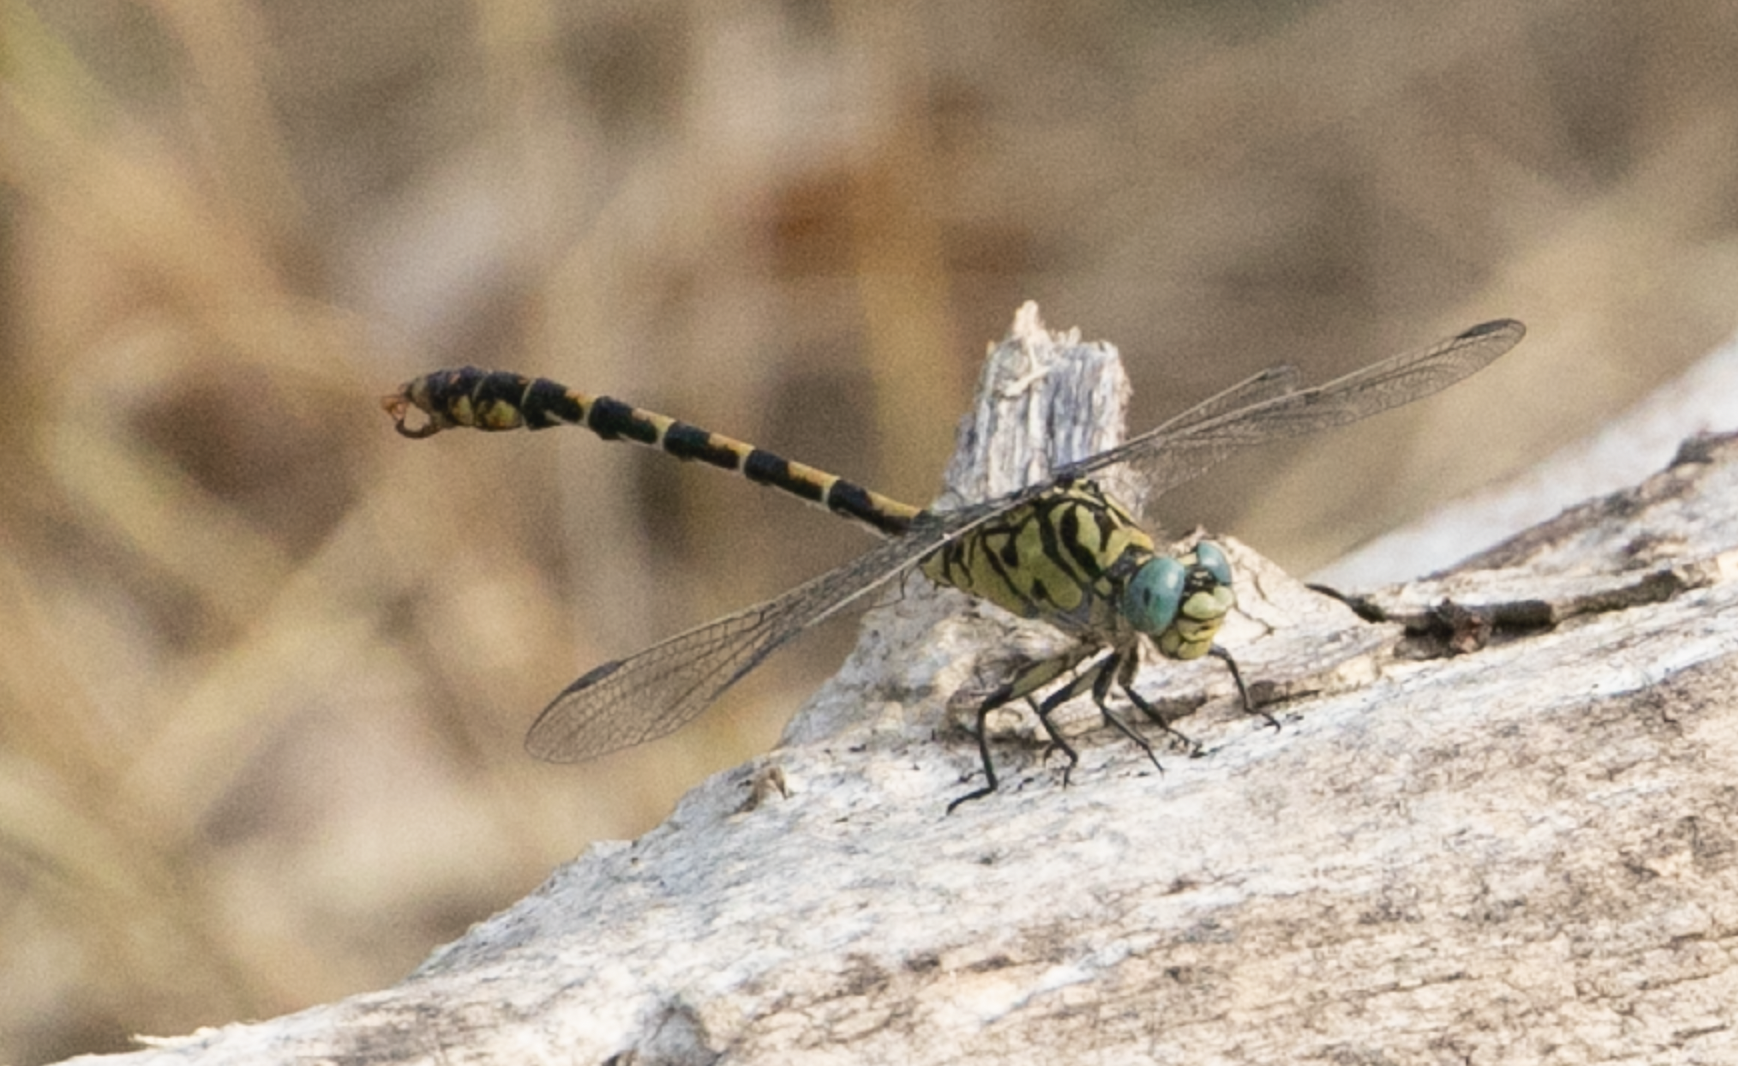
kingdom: Animalia
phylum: Arthropoda
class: Insecta
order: Odonata
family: Gomphidae
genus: Onychogomphus
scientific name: Onychogomphus forcipatus
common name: Small pincertail
